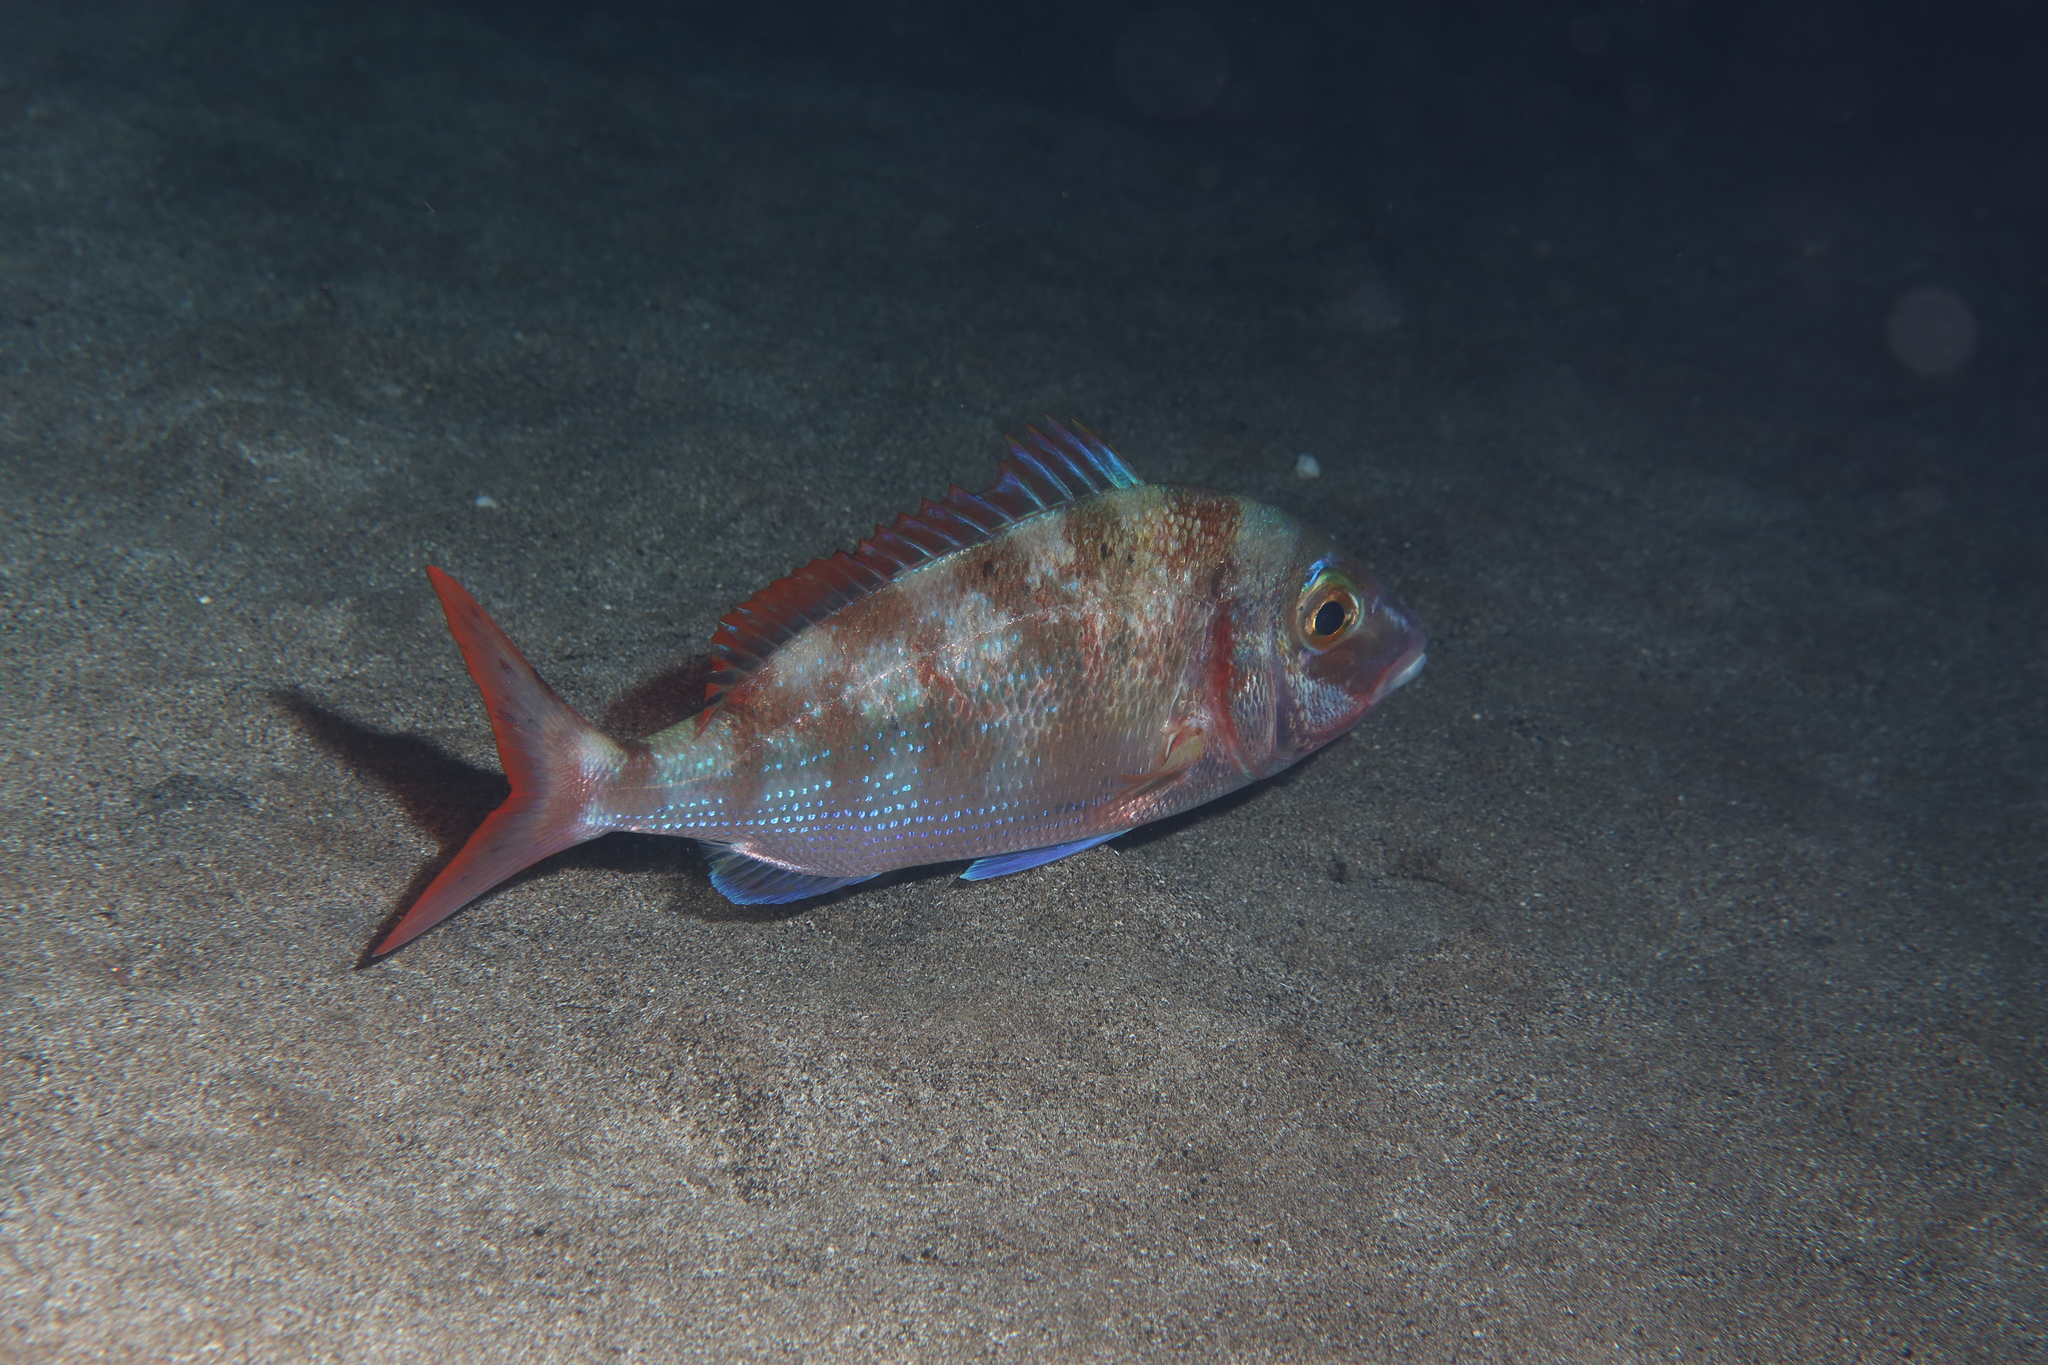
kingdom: Animalia
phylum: Chordata
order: Perciformes
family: Sparidae
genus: Pagellus
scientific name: Pagellus erythrinus
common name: Pandora
